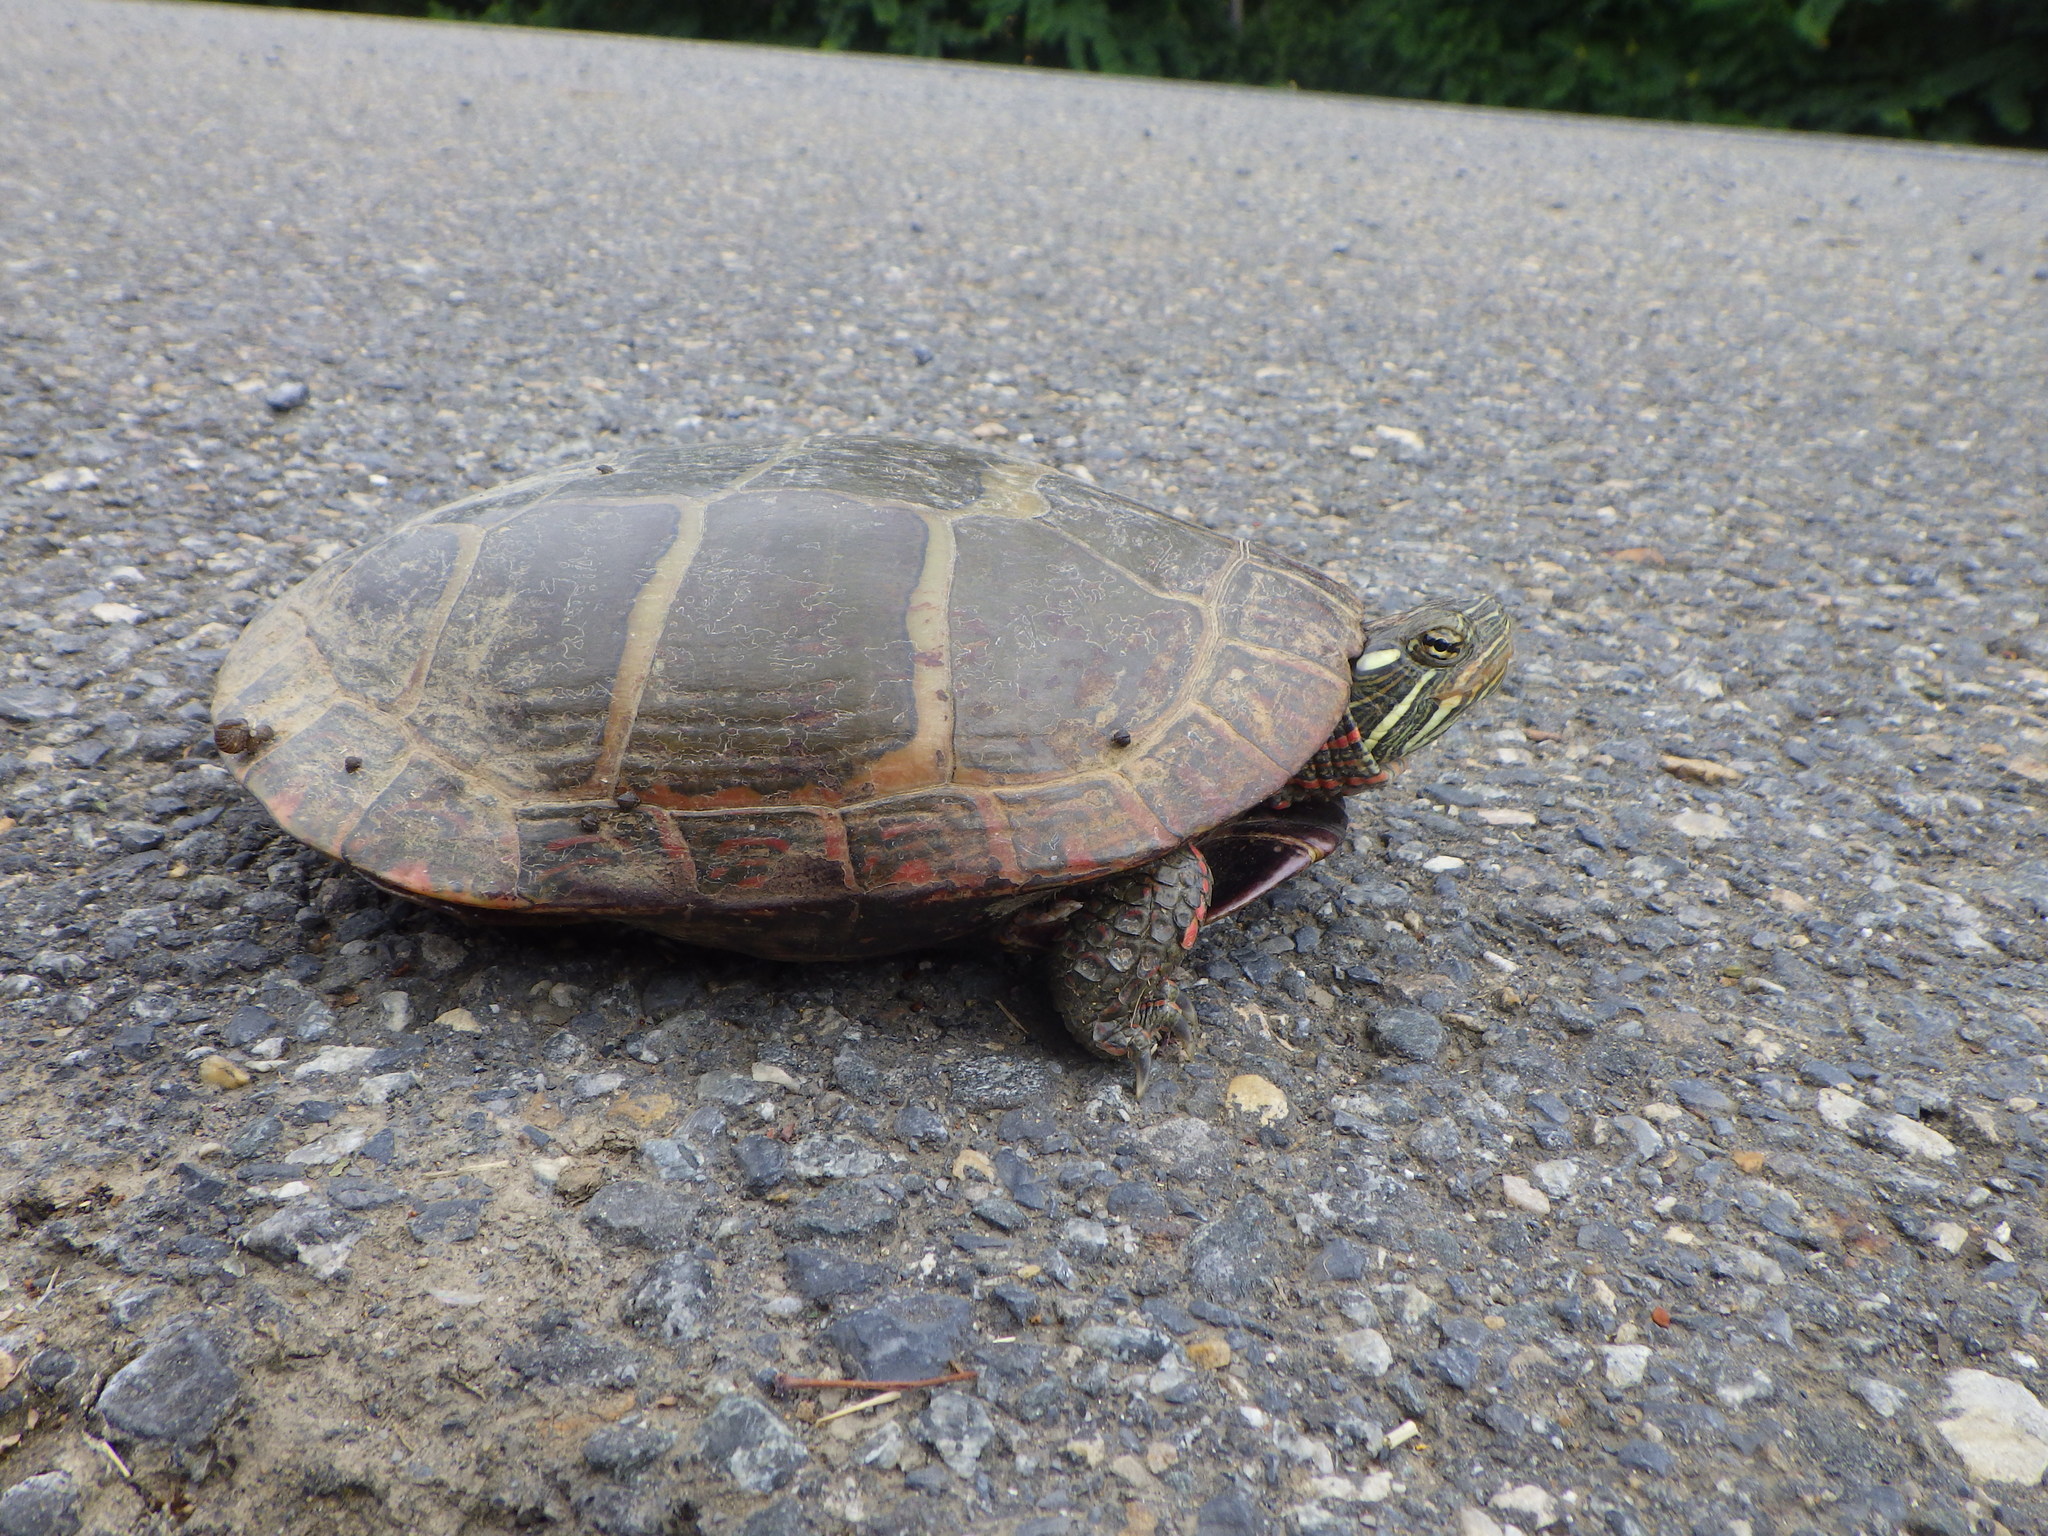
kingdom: Animalia
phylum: Chordata
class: Testudines
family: Emydidae
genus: Chrysemys
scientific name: Chrysemys picta
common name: Painted turtle
